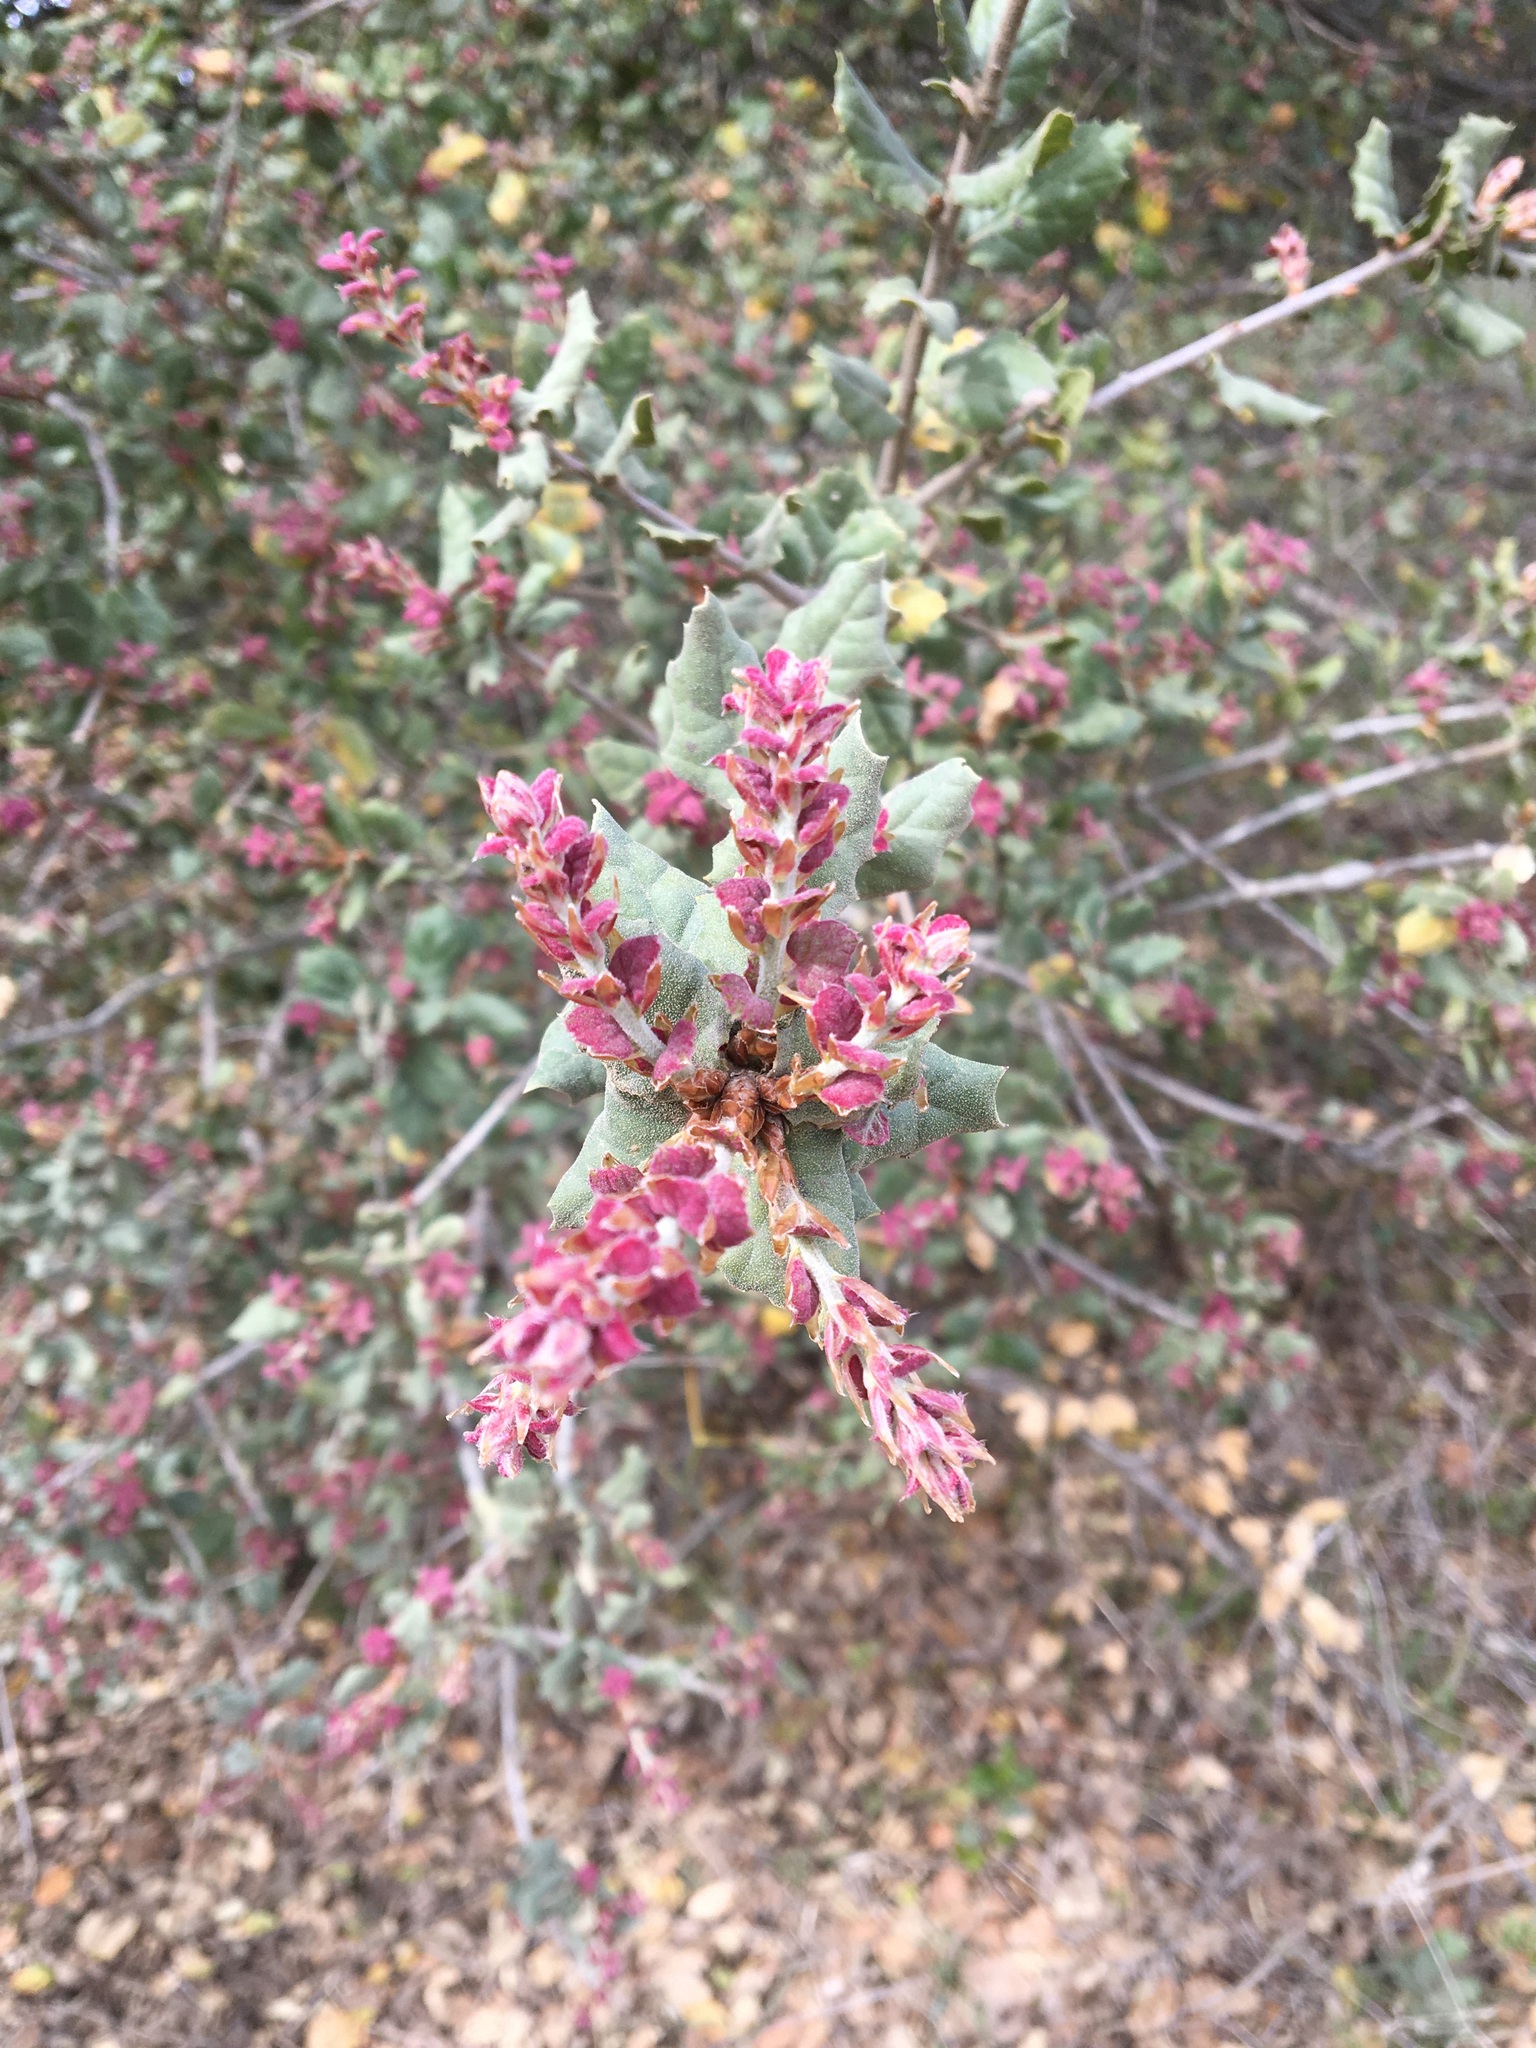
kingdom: Plantae
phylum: Tracheophyta
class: Magnoliopsida
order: Fagales
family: Fagaceae
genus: Quercus
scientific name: Quercus agrifolia
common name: California live oak
